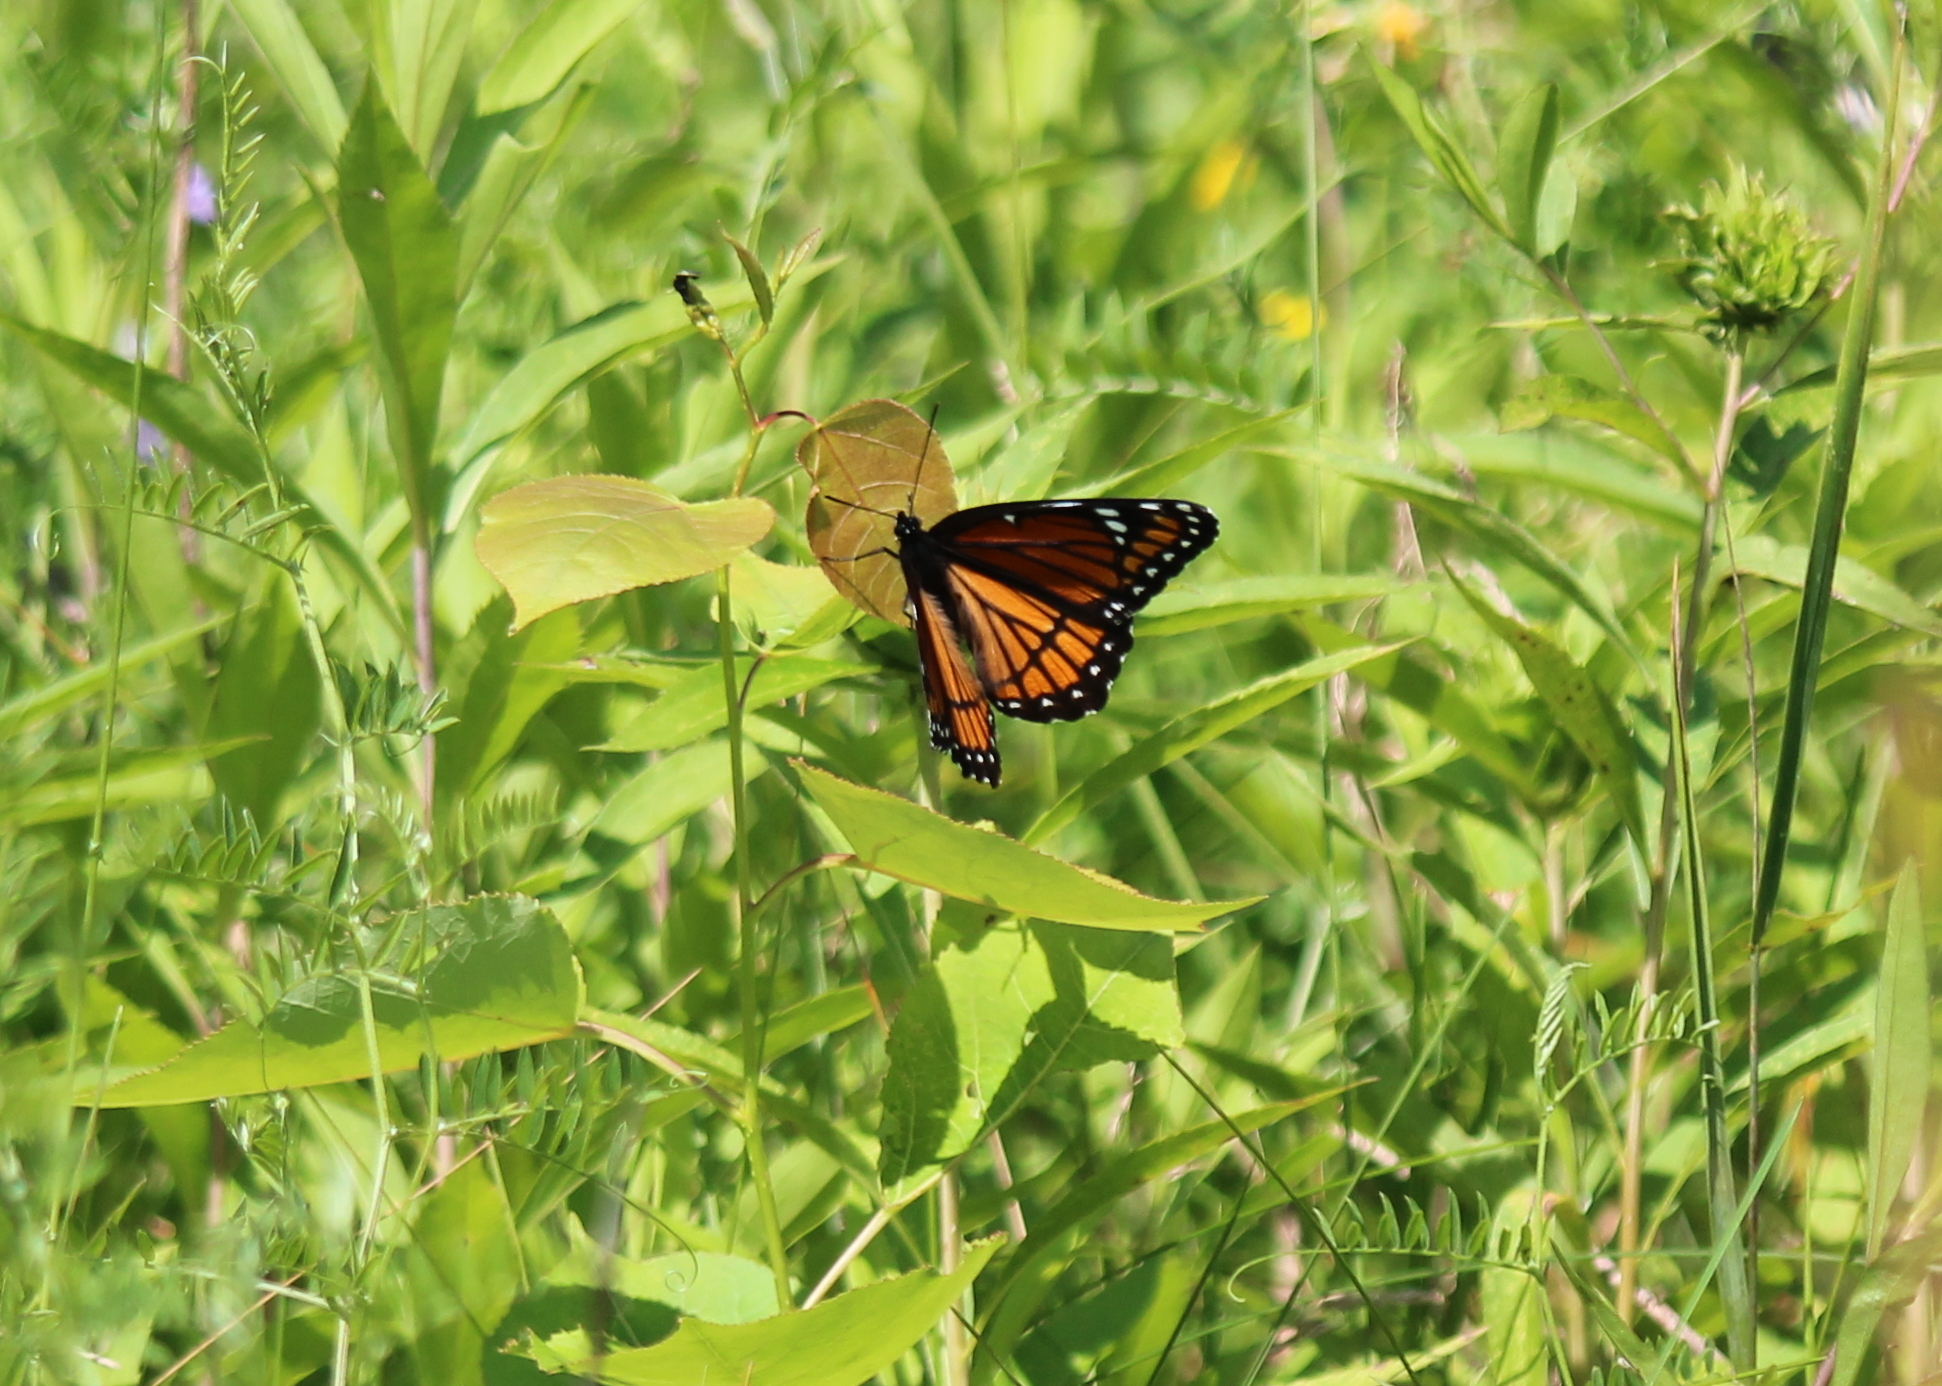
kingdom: Animalia
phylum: Arthropoda
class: Insecta
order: Lepidoptera
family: Nymphalidae
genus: Limenitis
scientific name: Limenitis archippus
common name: Viceroy
